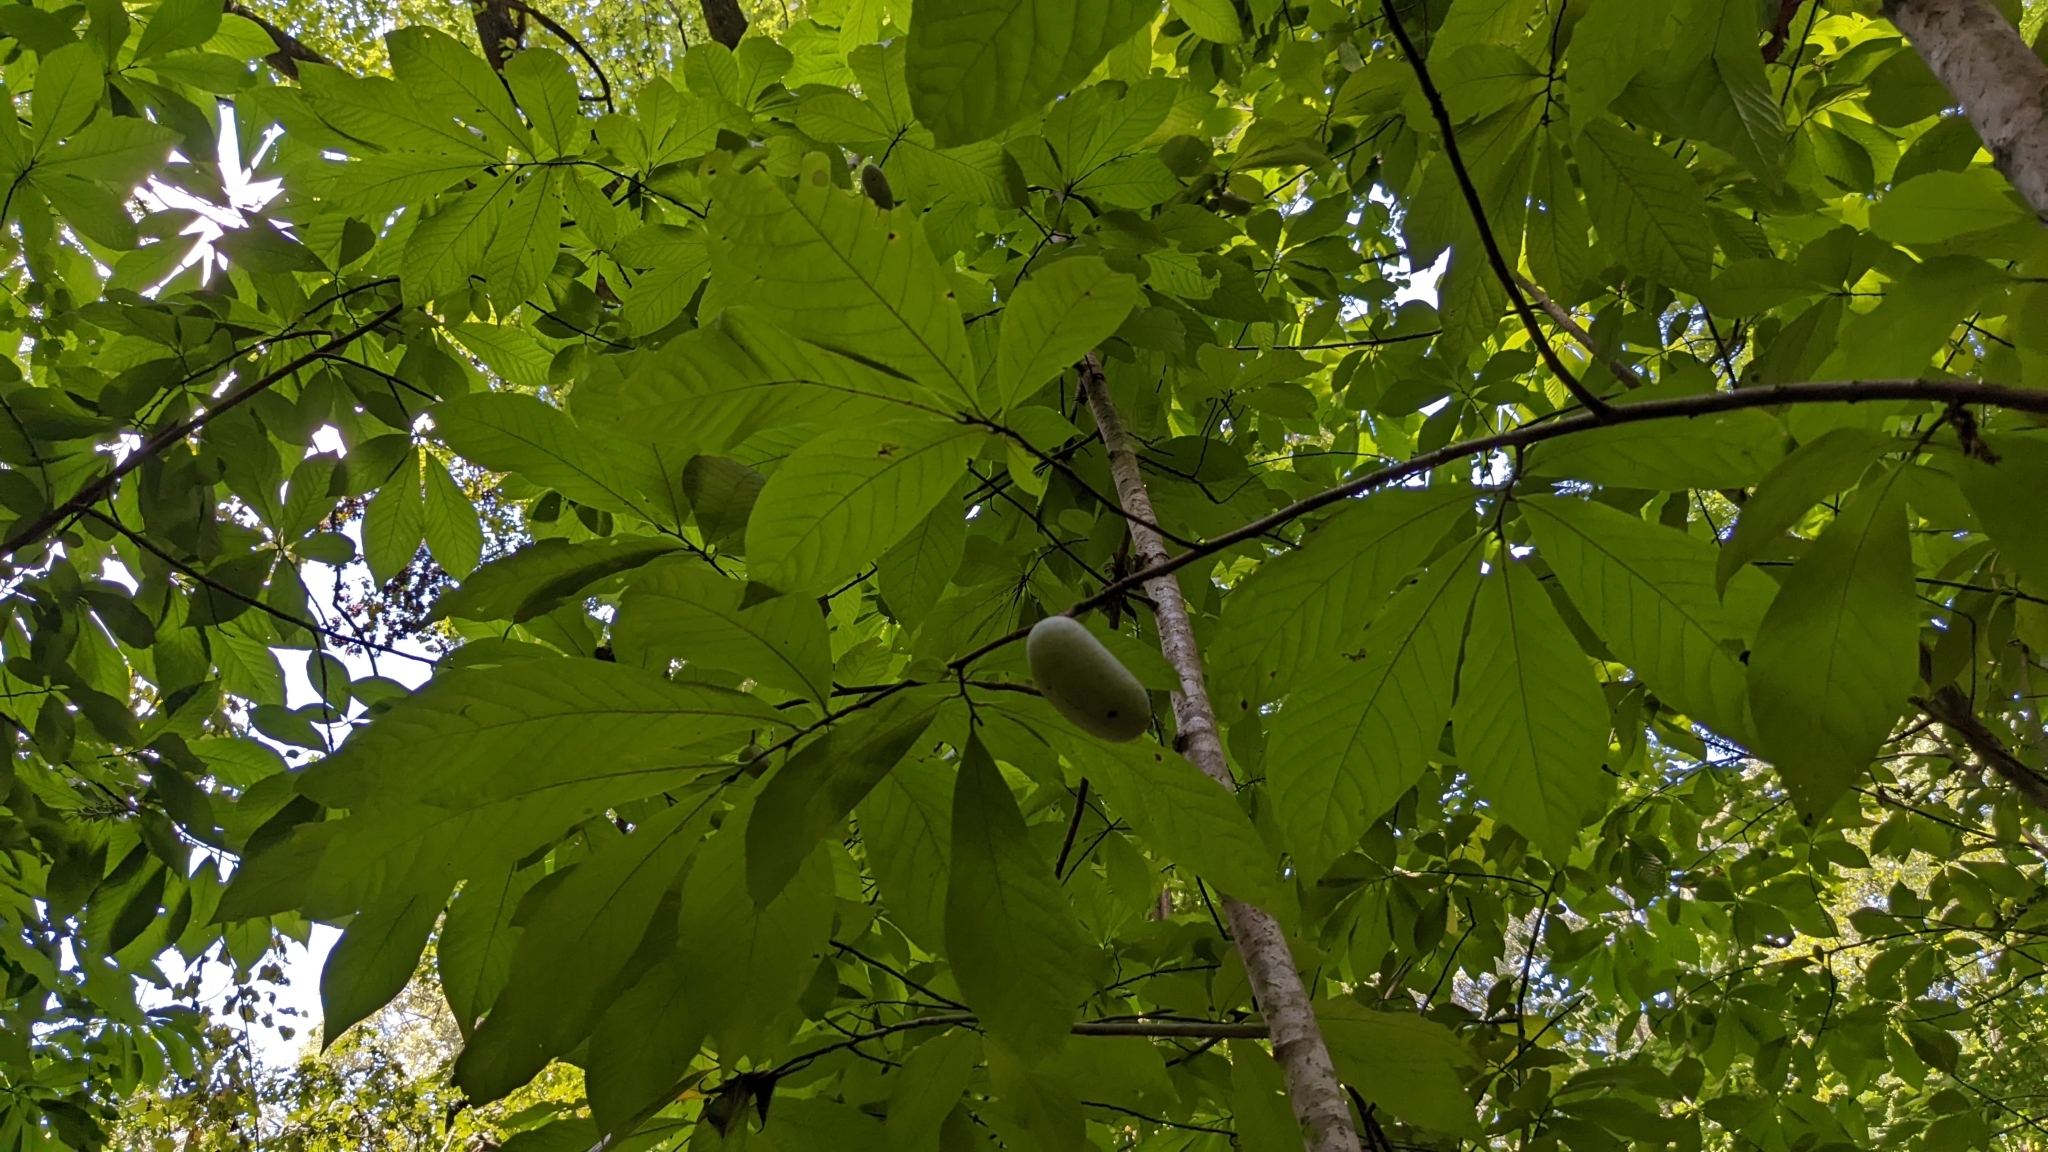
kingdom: Plantae
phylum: Tracheophyta
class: Magnoliopsida
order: Magnoliales
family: Annonaceae
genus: Asimina
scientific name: Asimina triloba
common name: Dog-banana
